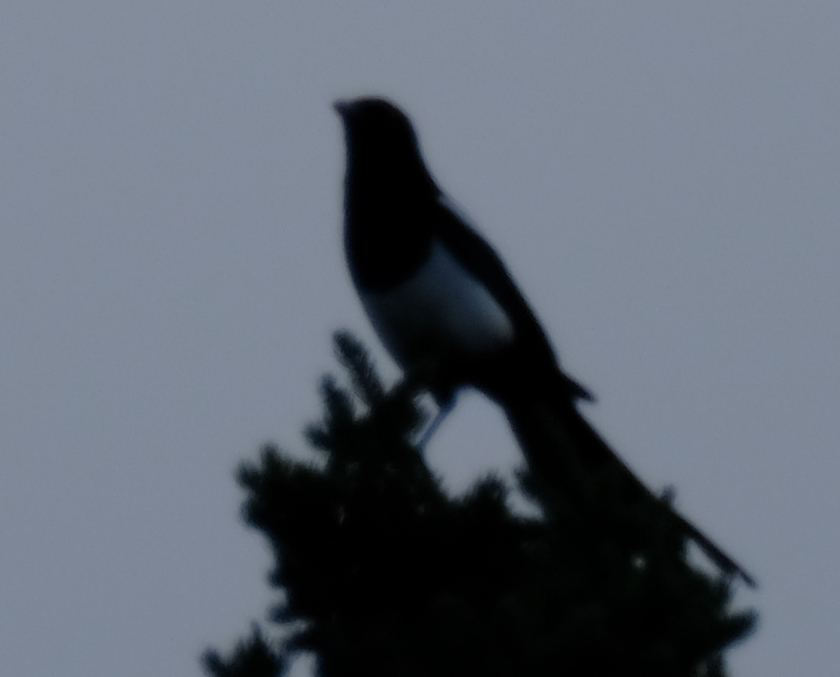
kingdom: Animalia
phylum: Chordata
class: Aves
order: Passeriformes
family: Corvidae
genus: Pica
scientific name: Pica hudsonia
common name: Black-billed magpie
